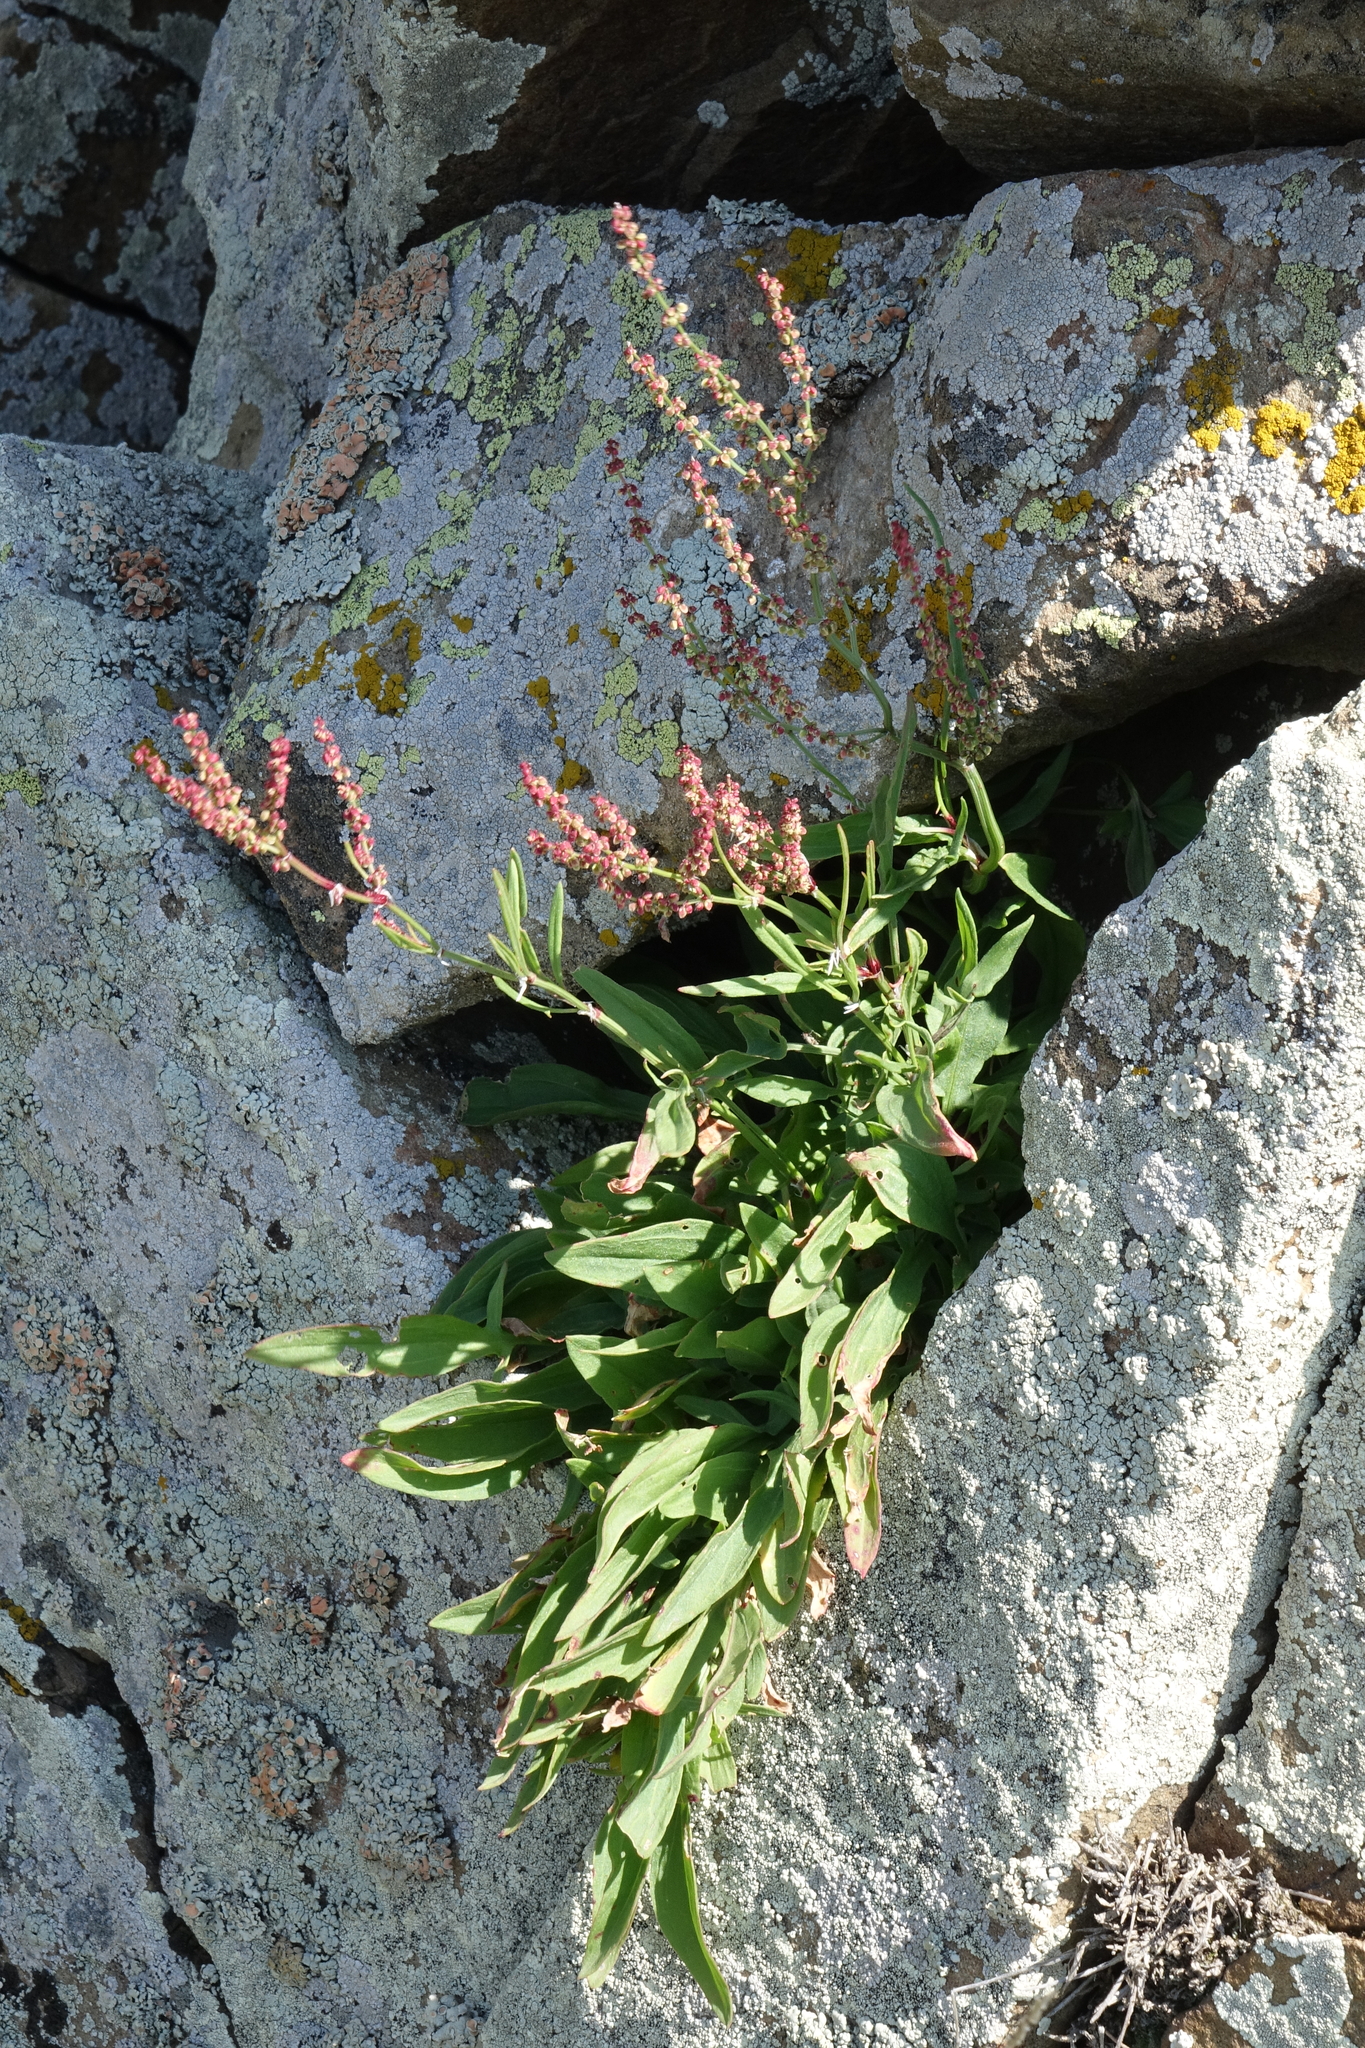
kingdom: Plantae
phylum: Tracheophyta
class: Magnoliopsida
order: Caryophyllales
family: Polygonaceae
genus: Rumex
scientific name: Rumex acetosella
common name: Common sheep sorrel
